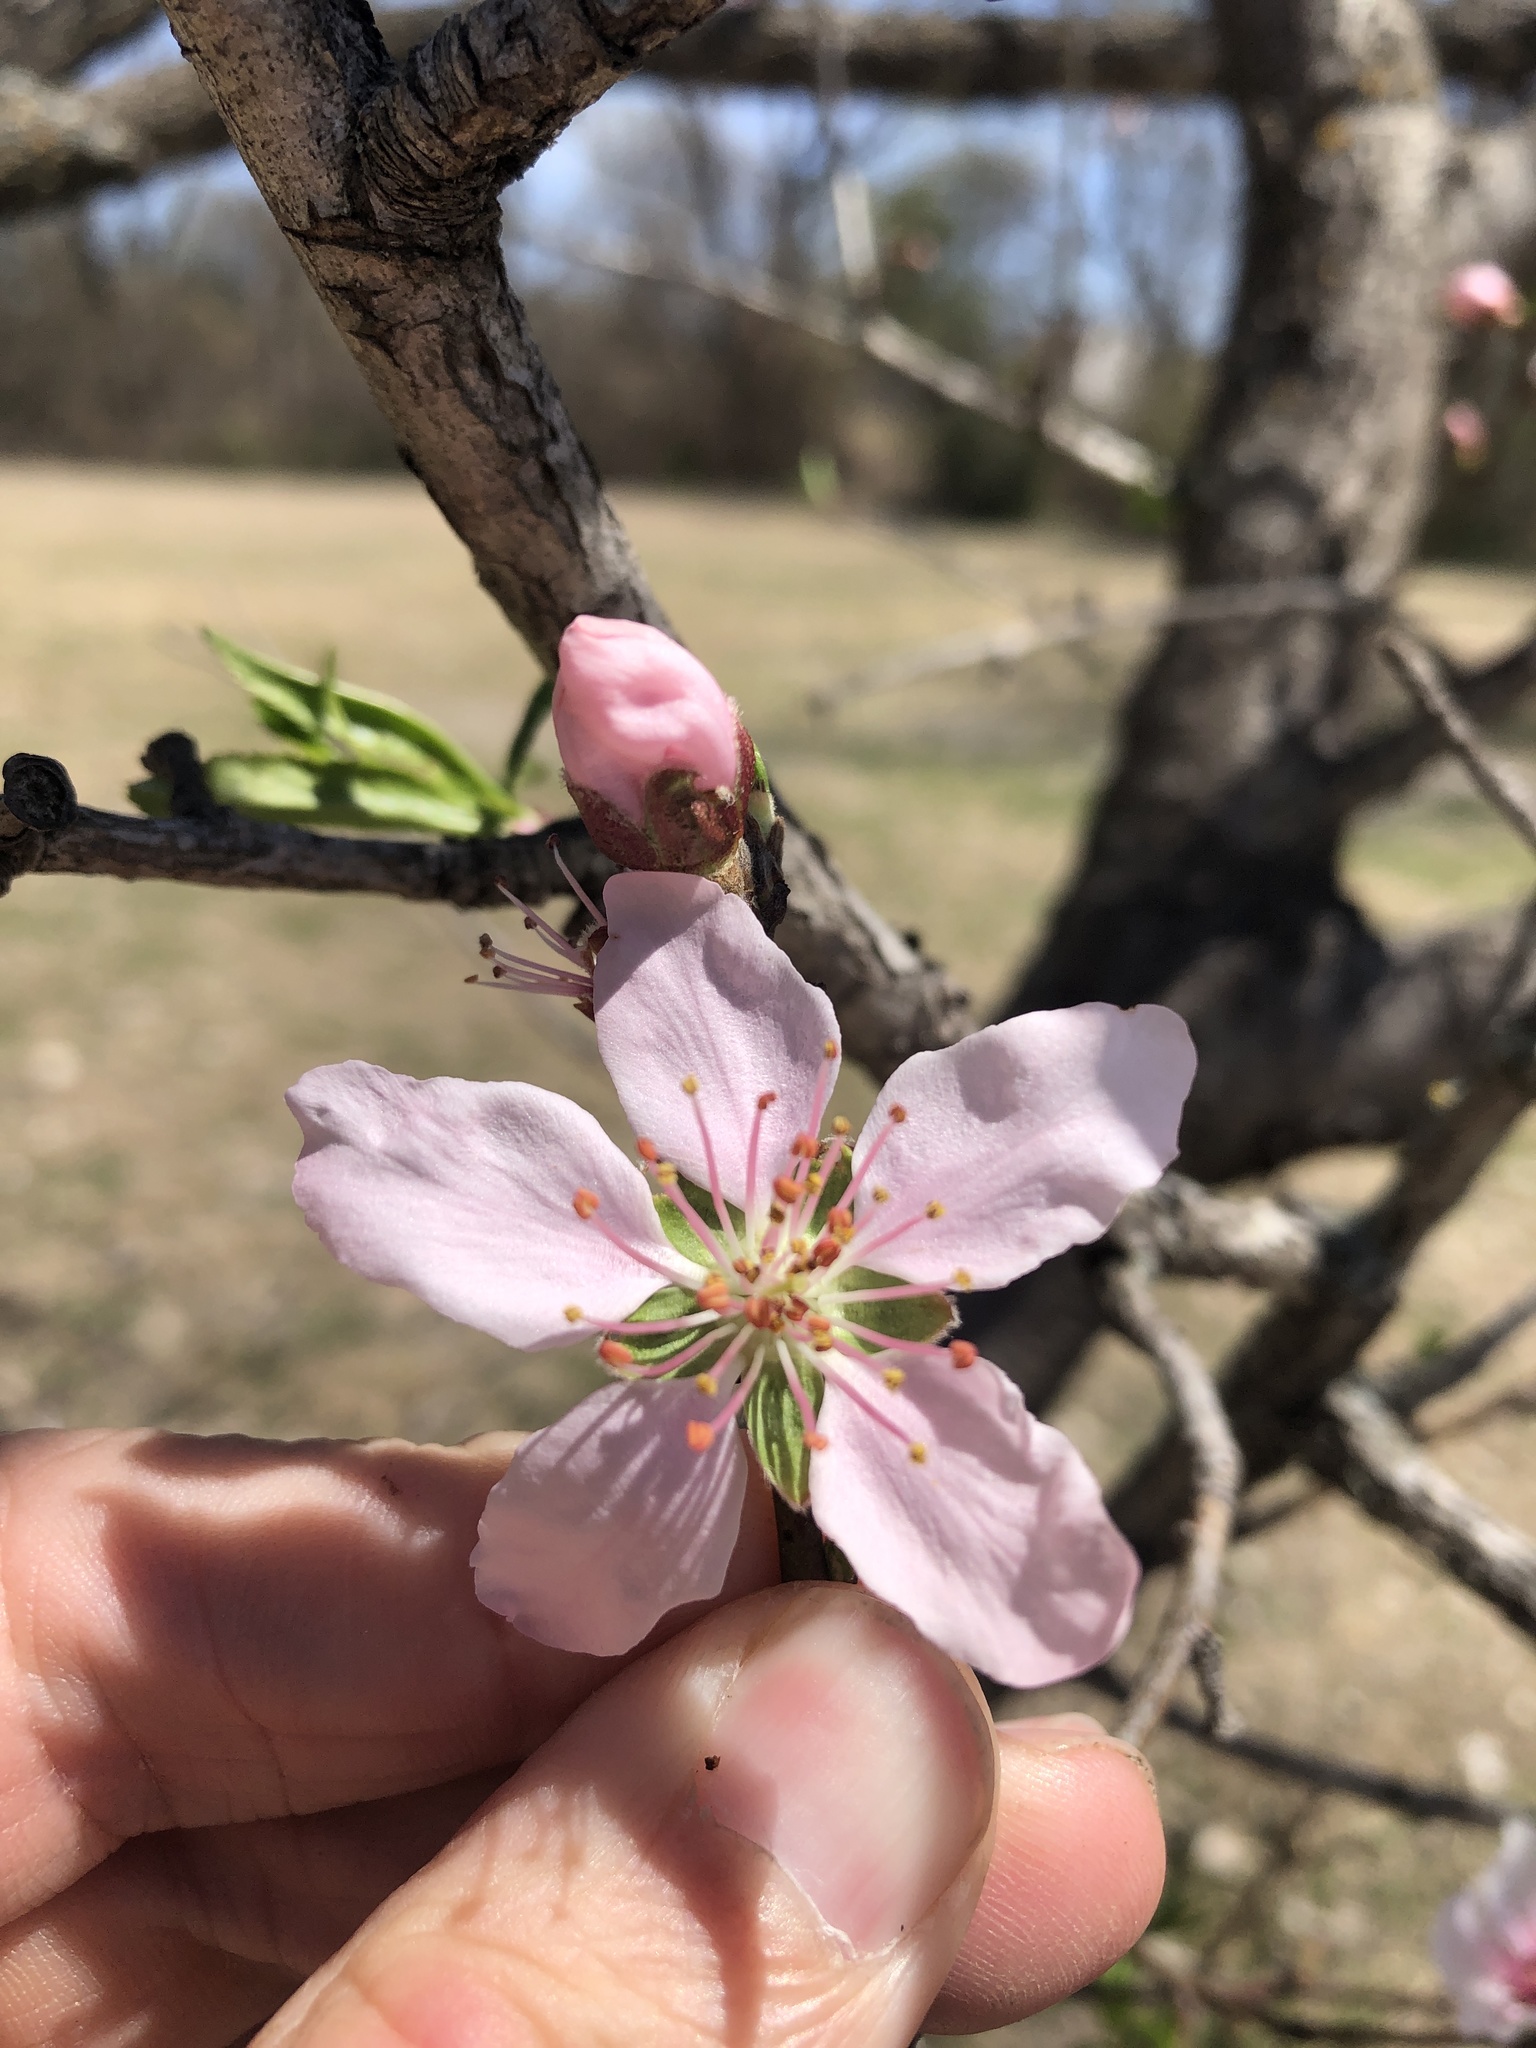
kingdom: Plantae
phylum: Tracheophyta
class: Magnoliopsida
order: Rosales
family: Rosaceae
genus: Prunus
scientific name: Prunus persica
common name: Peach
